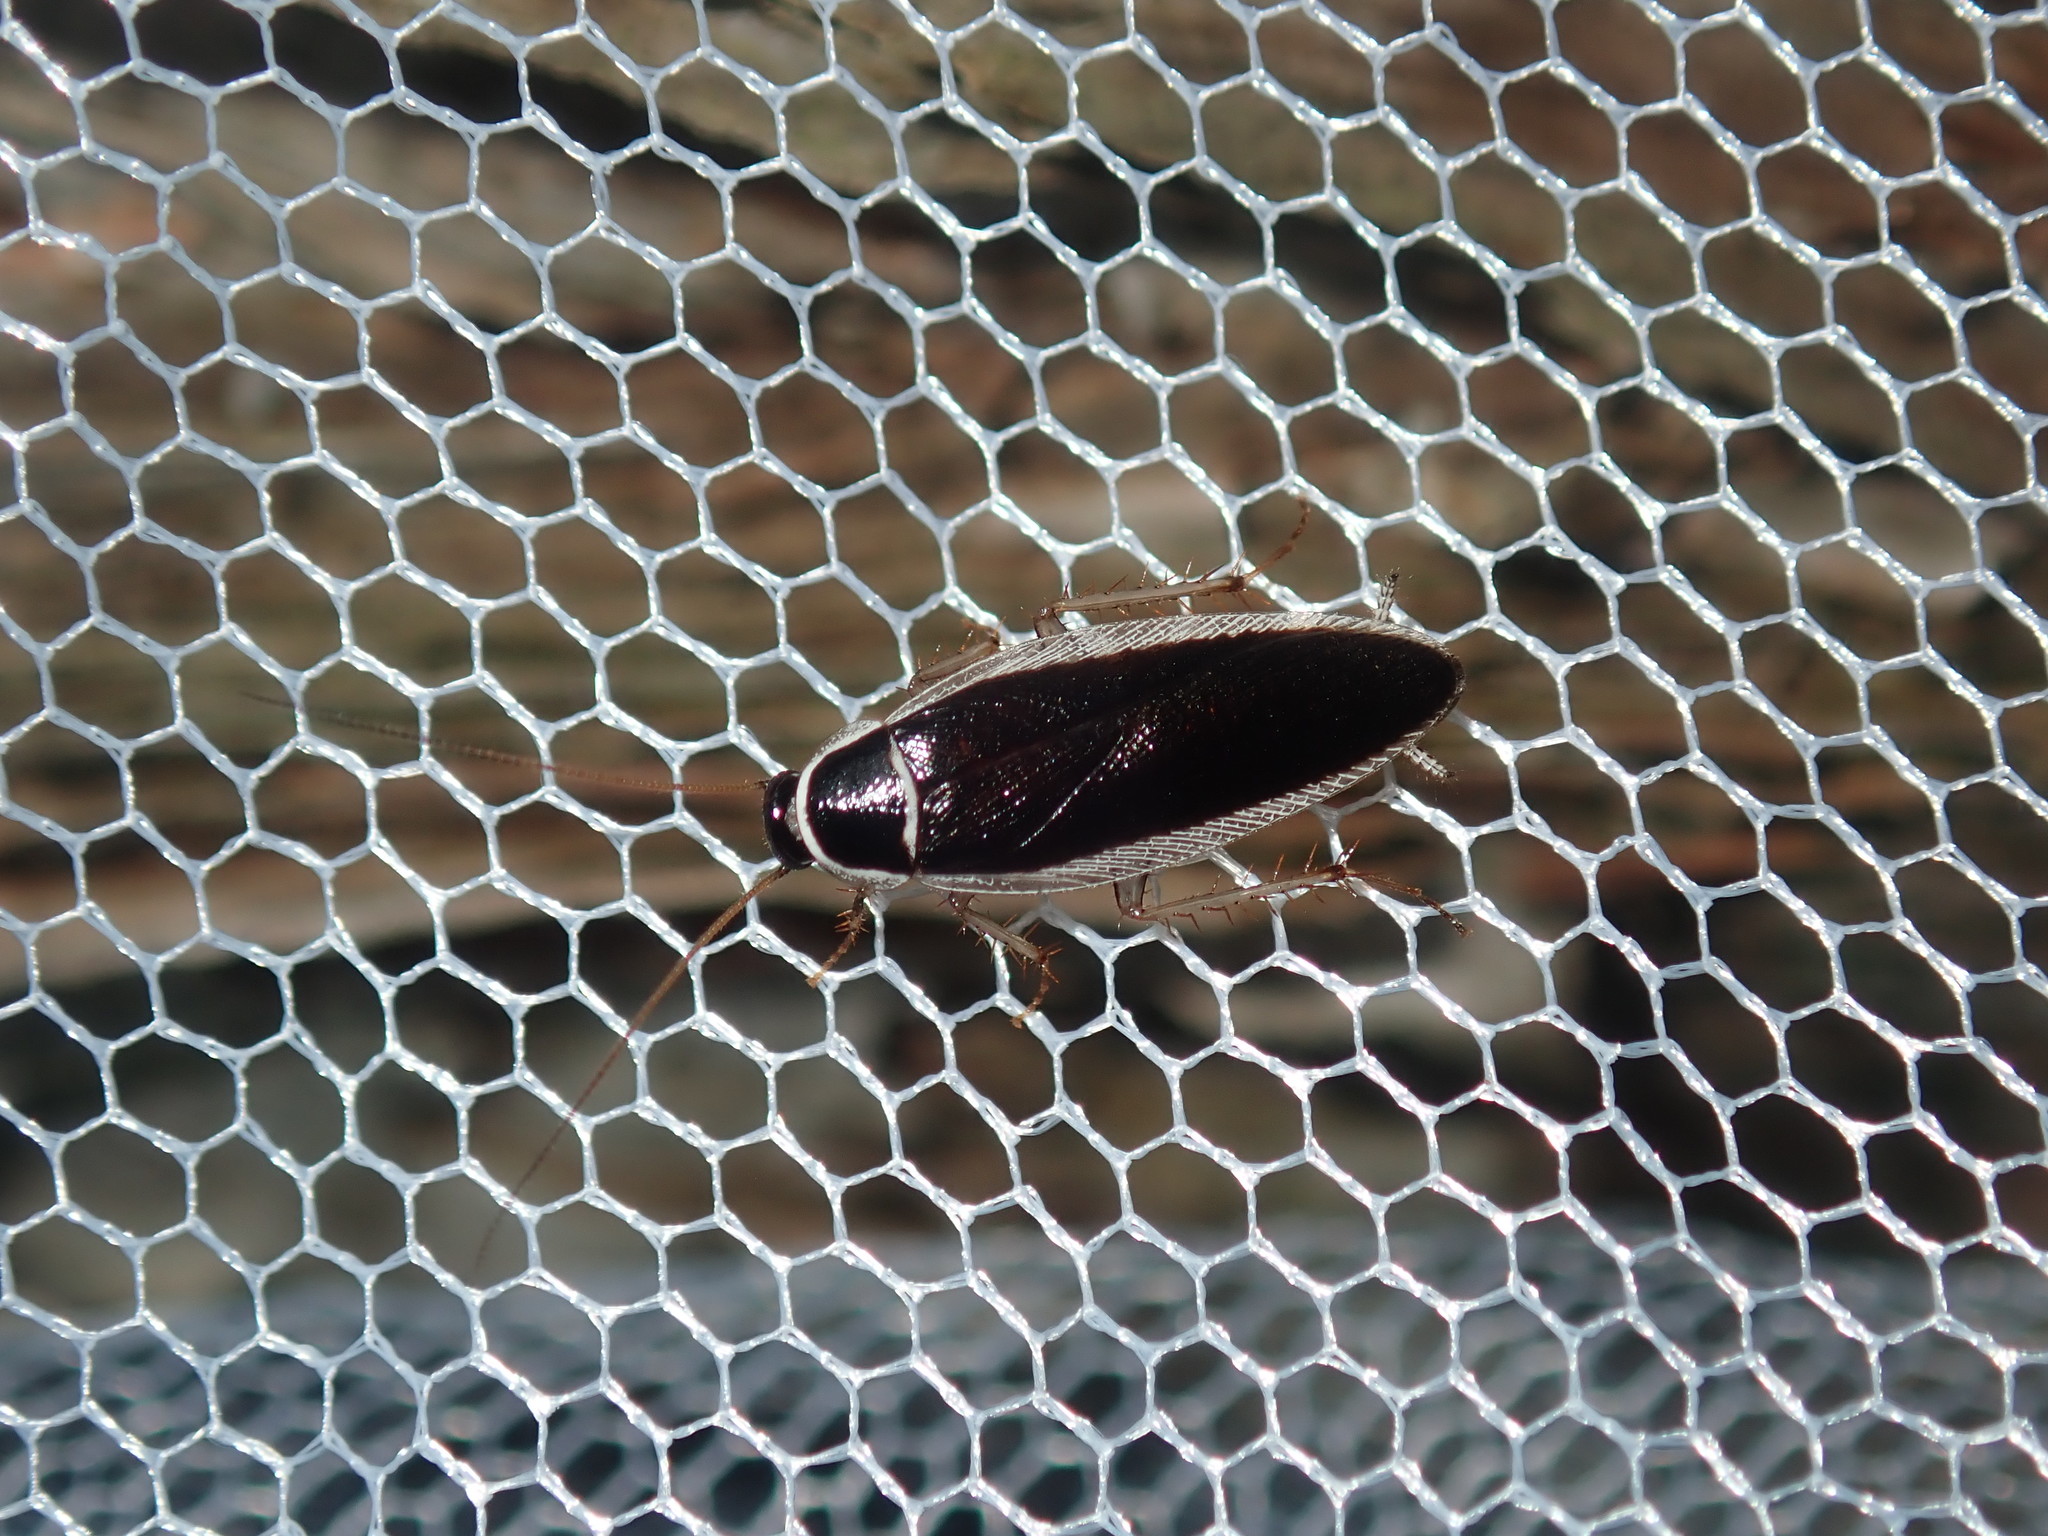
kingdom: Animalia
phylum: Arthropoda
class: Insecta
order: Blattodea
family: Ectobiidae
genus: Johnrehnia
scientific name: Johnrehnia concisa
